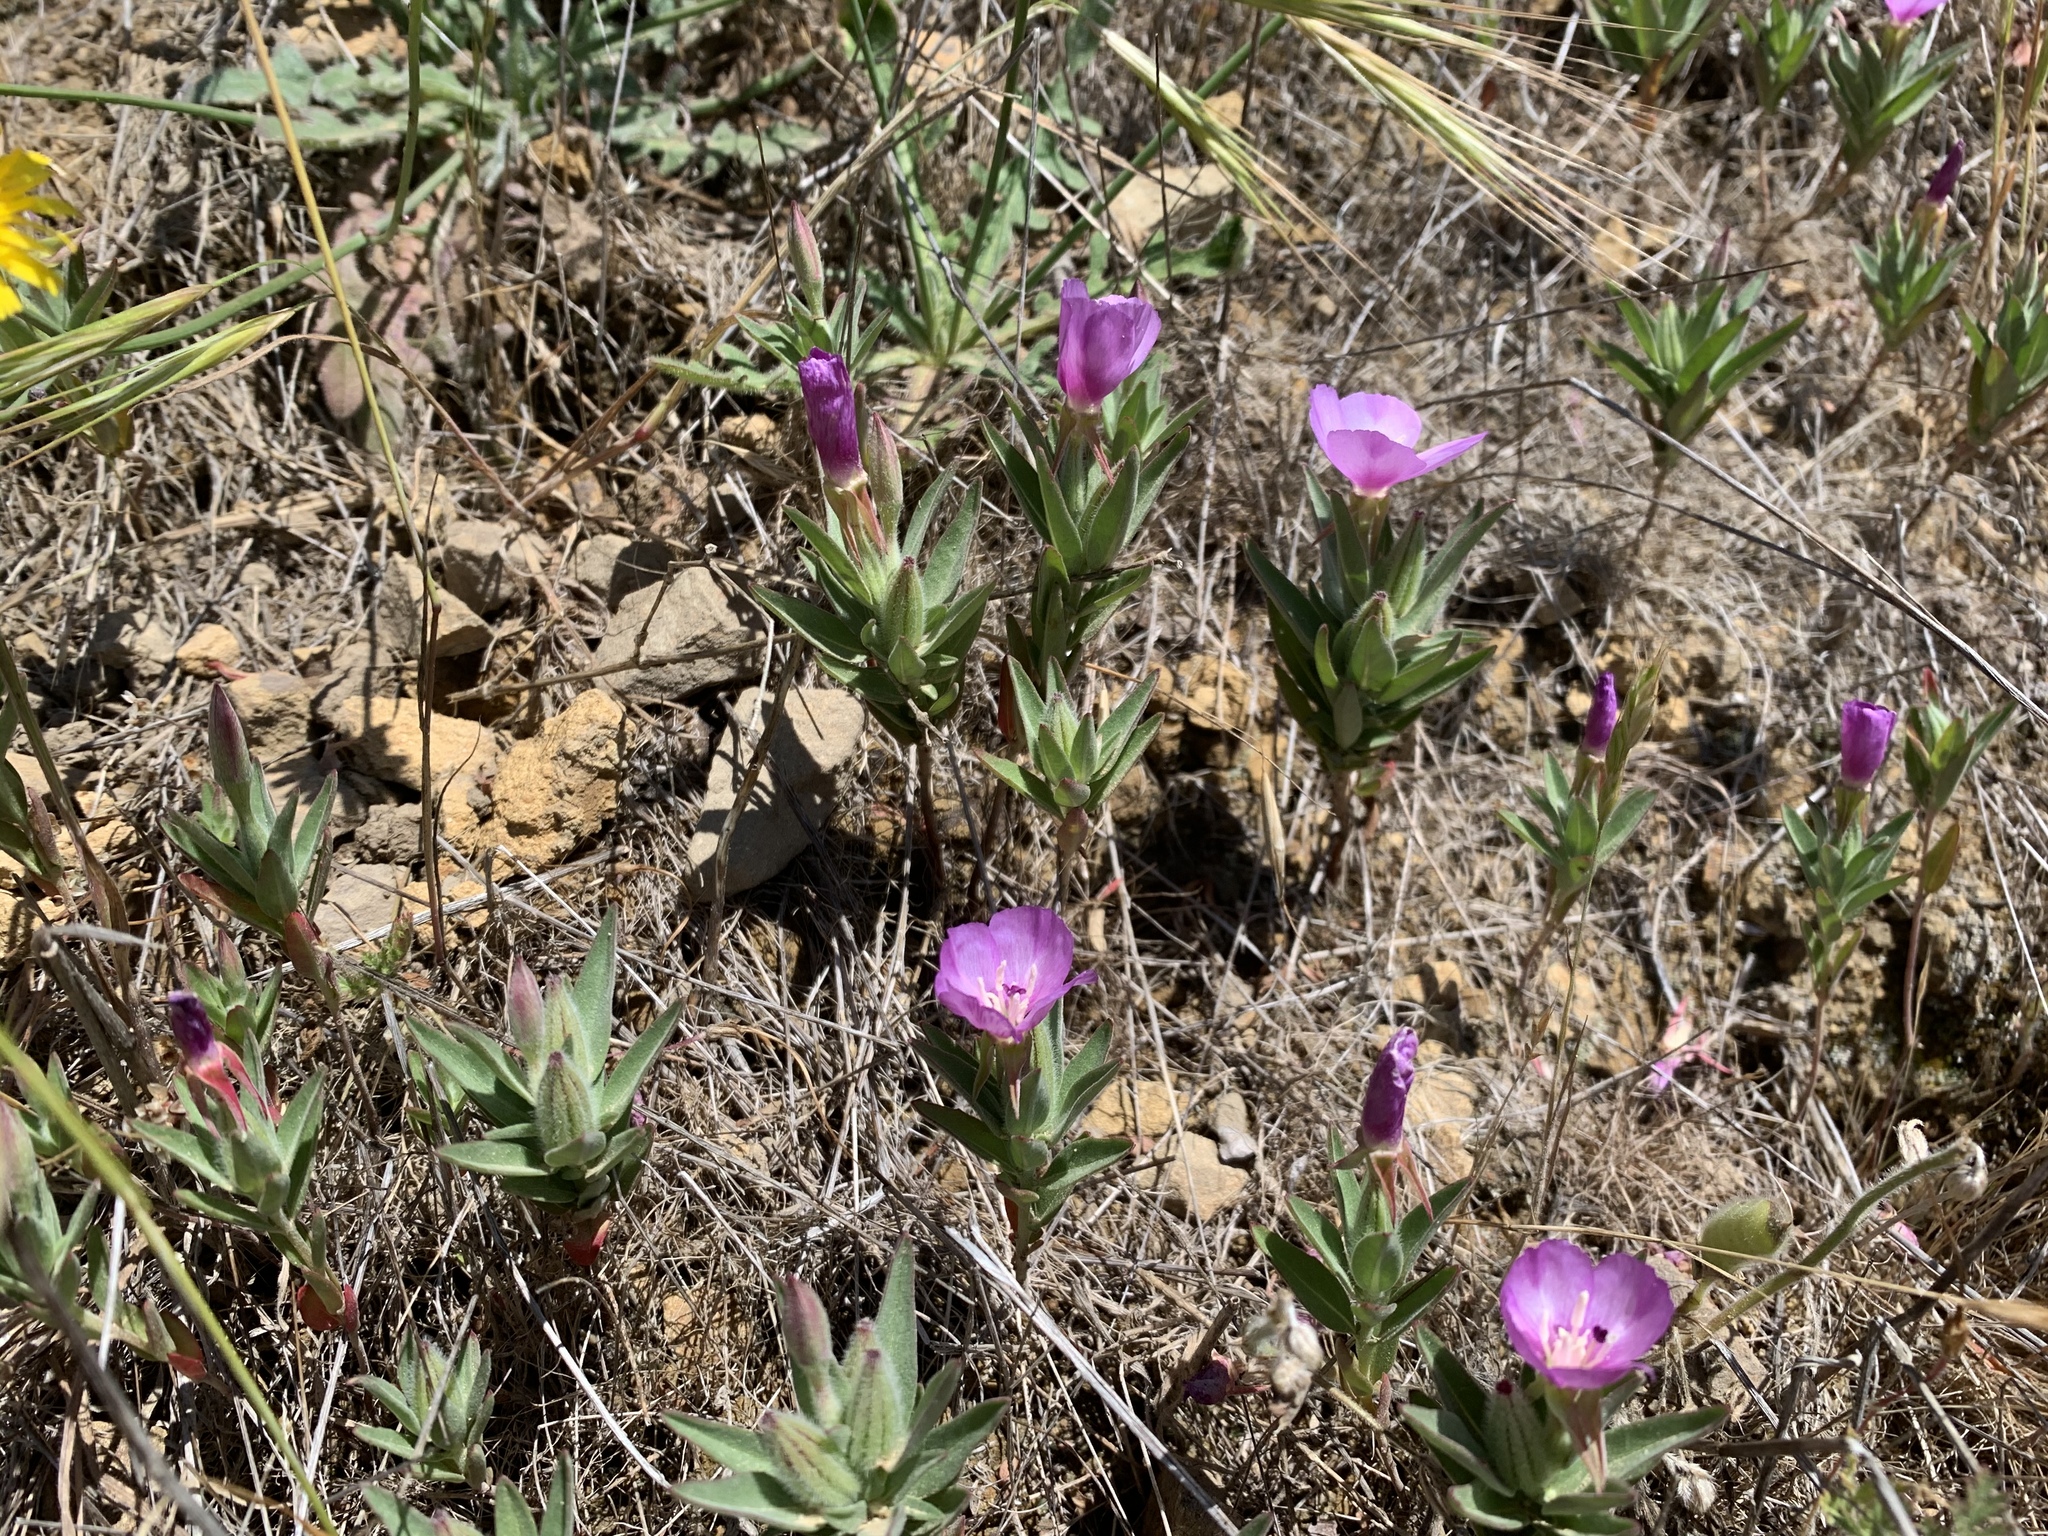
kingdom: Plantae
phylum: Tracheophyta
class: Magnoliopsida
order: Myrtales
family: Onagraceae
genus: Clarkia
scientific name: Clarkia purpurea
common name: Purple clarkia
